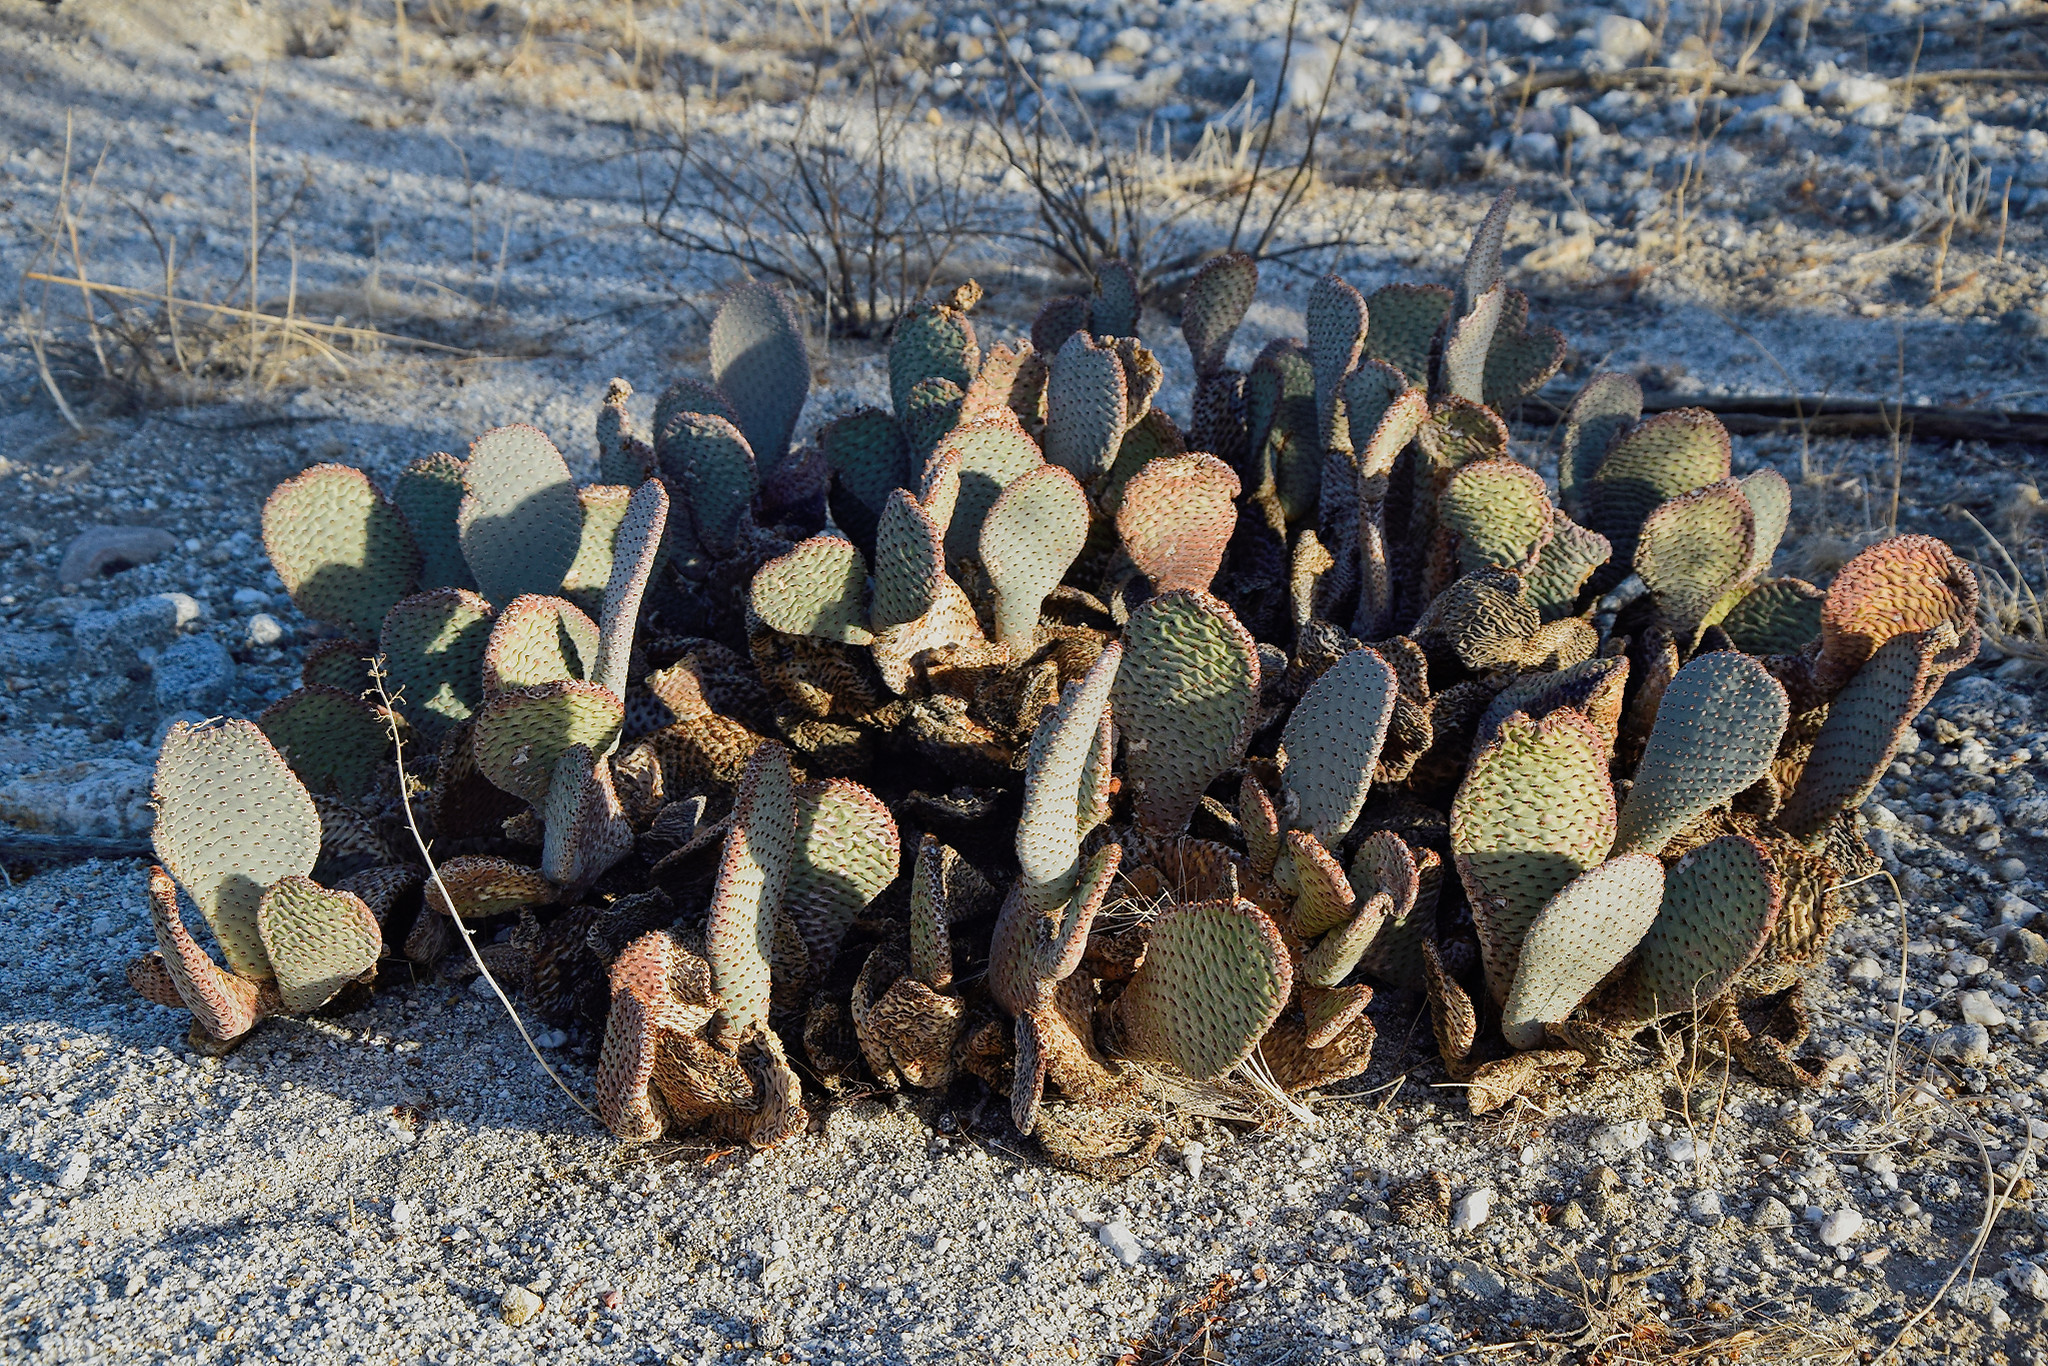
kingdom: Plantae
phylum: Tracheophyta
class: Magnoliopsida
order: Caryophyllales
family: Cactaceae
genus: Opuntia
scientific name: Opuntia basilaris
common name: Beavertail prickly-pear
